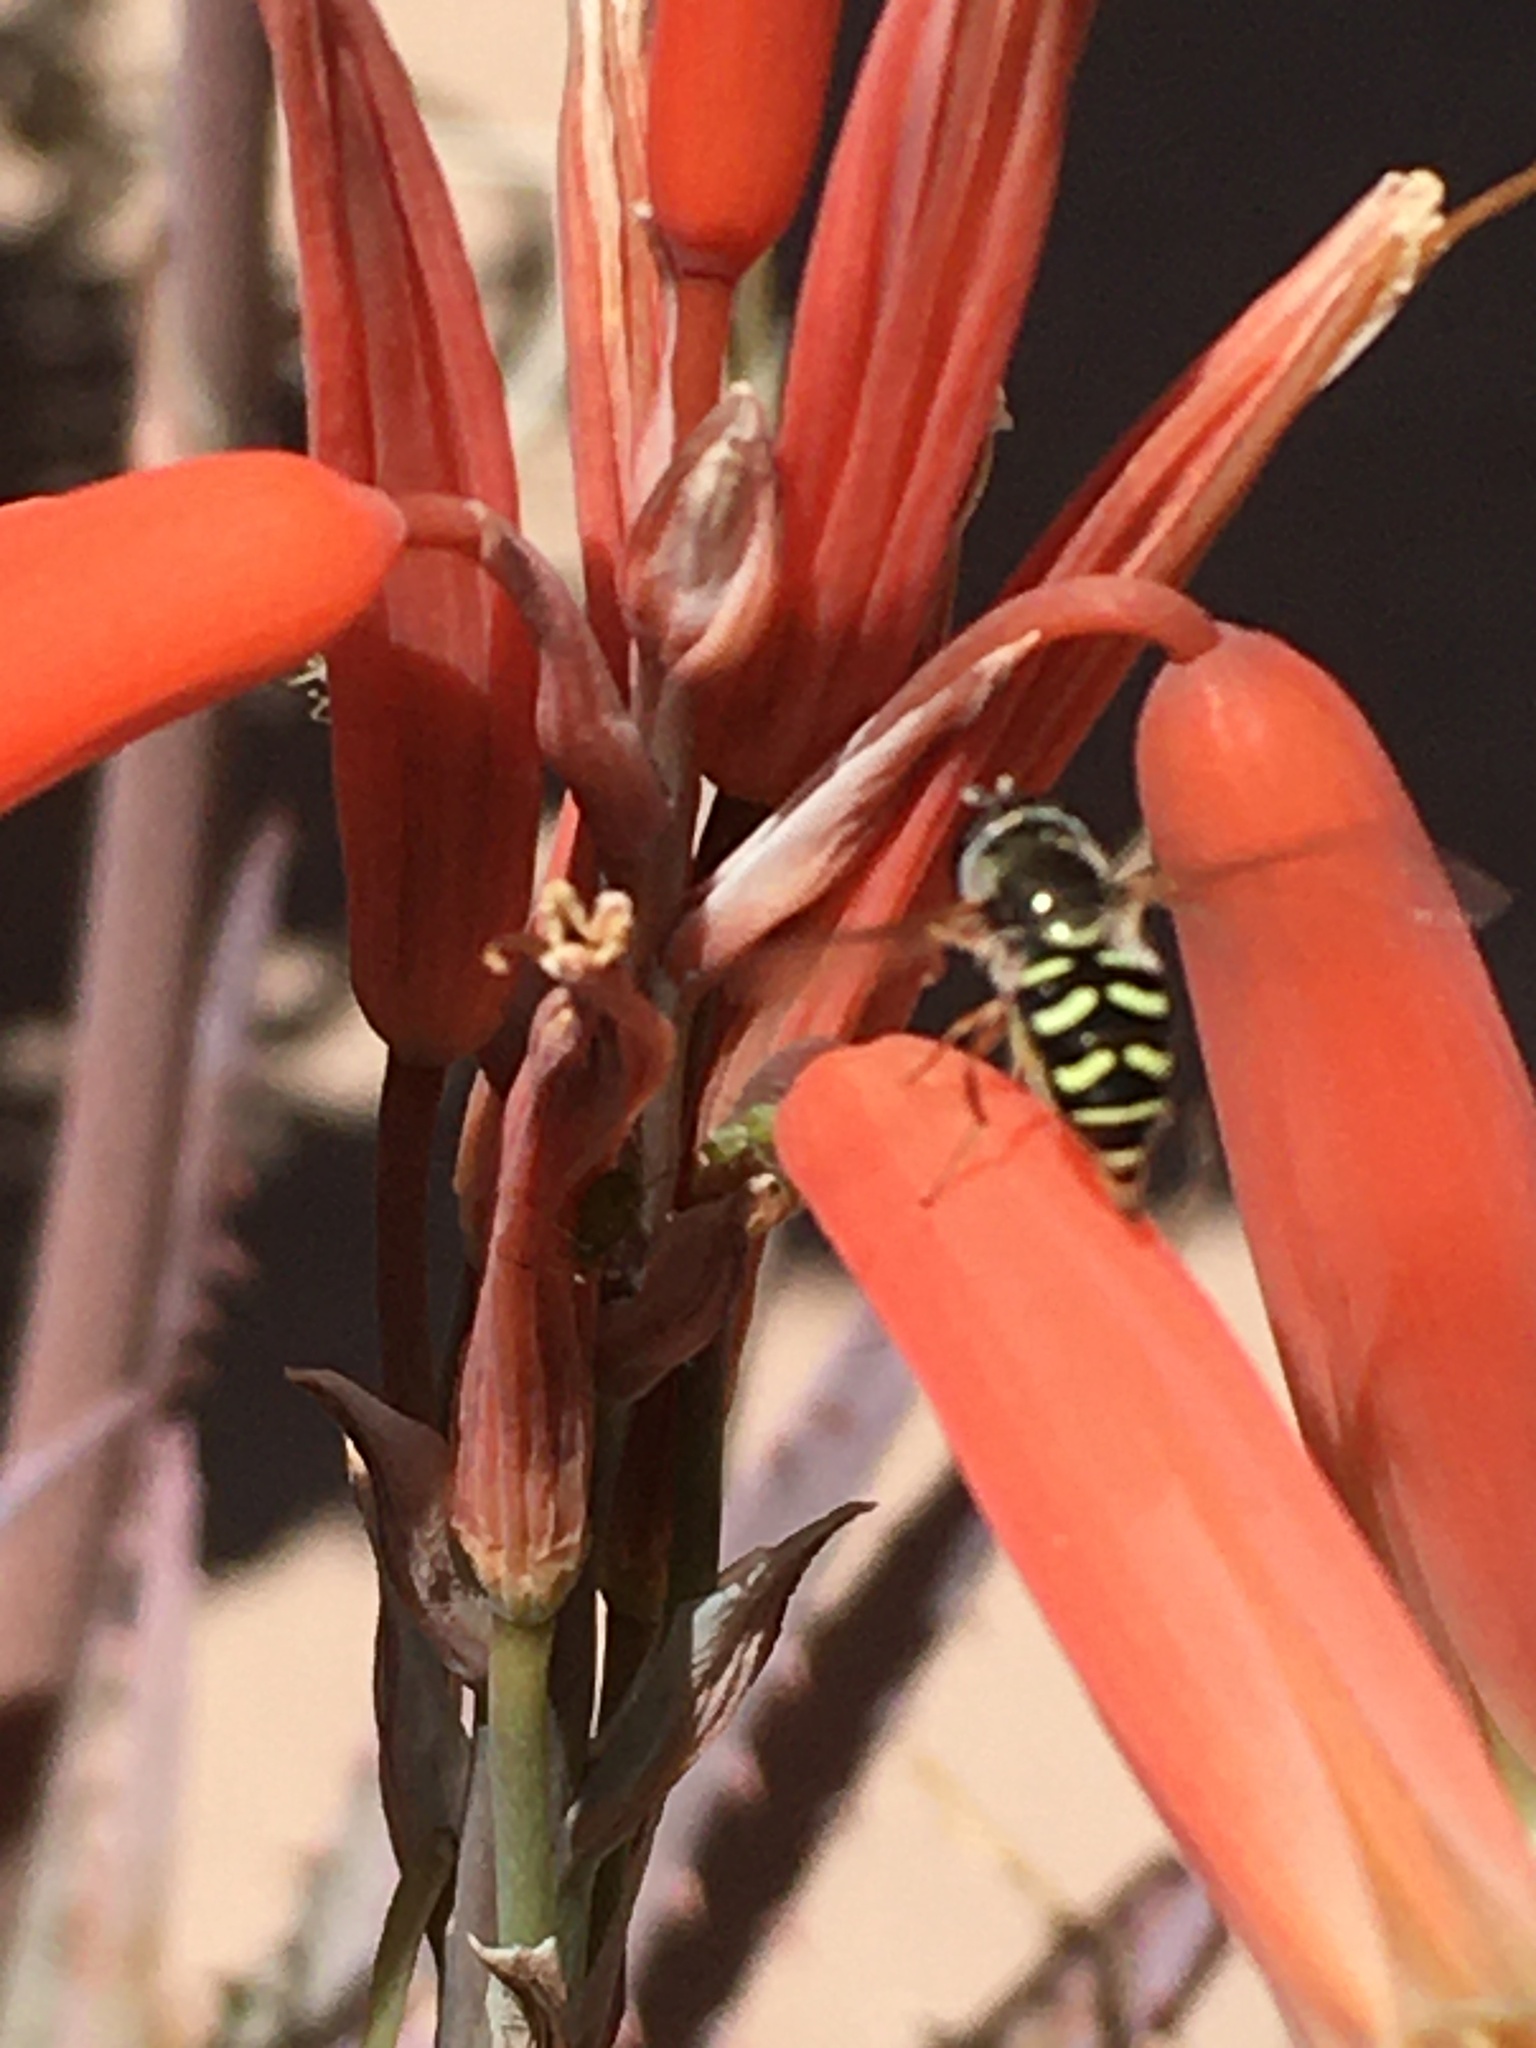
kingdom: Animalia
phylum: Arthropoda
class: Insecta
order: Diptera
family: Syrphidae
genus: Eupeodes
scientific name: Eupeodes volucris
